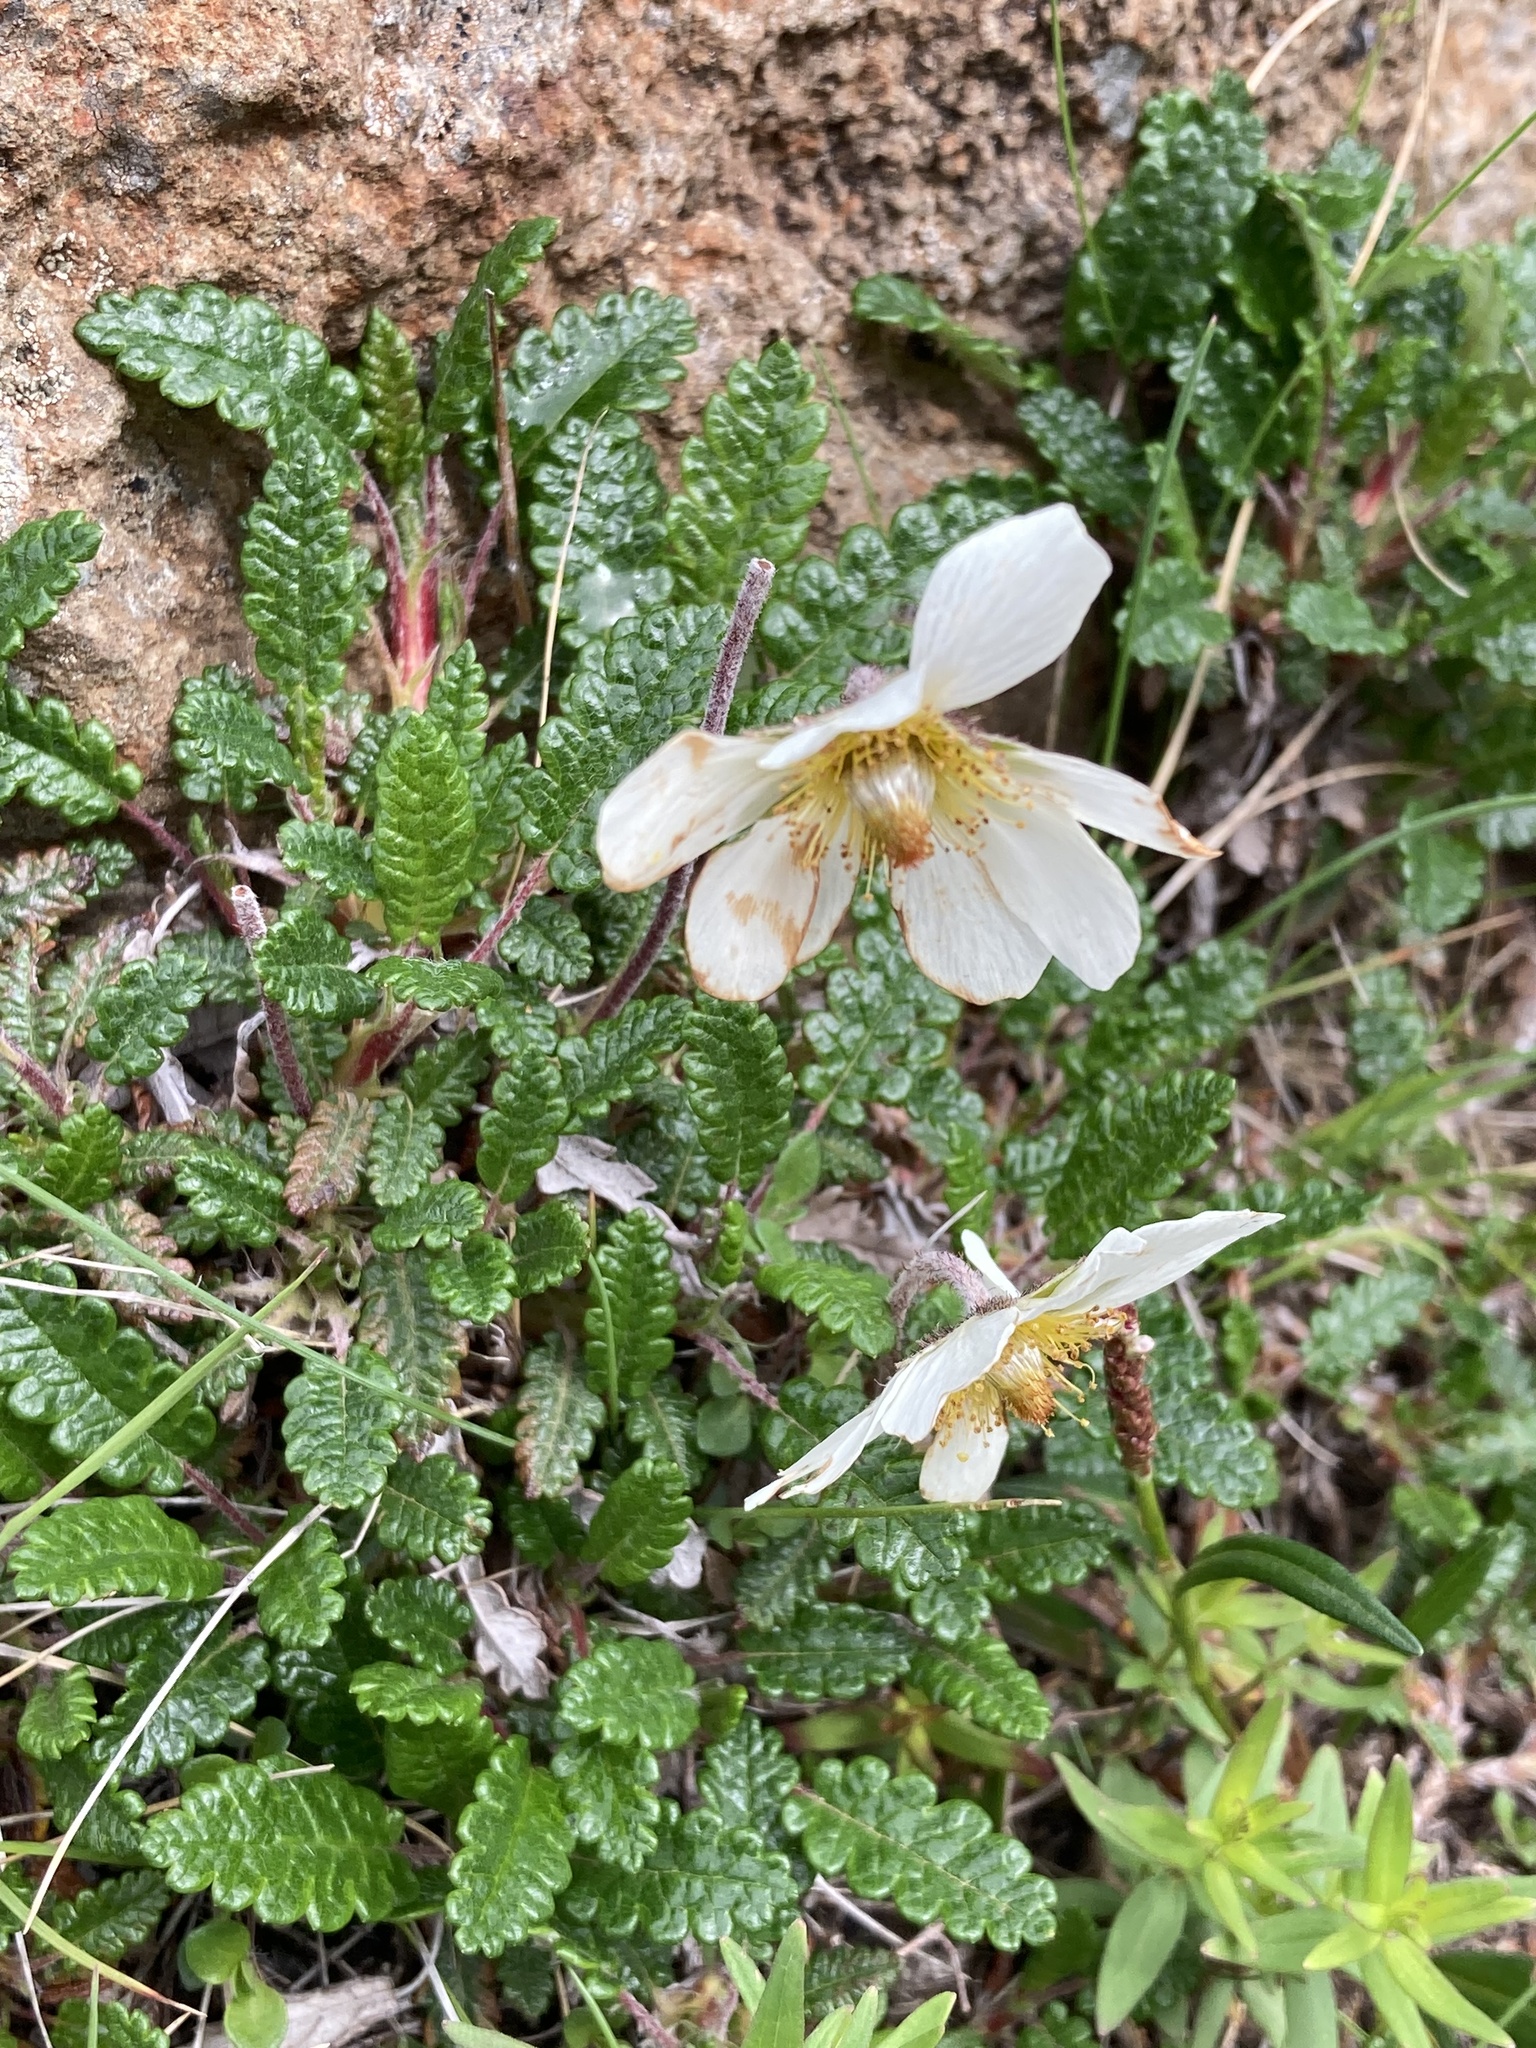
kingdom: Plantae
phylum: Tracheophyta
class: Magnoliopsida
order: Rosales
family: Rosaceae
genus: Dryas
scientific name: Dryas octopetala
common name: Eight-petal mountain-avens
